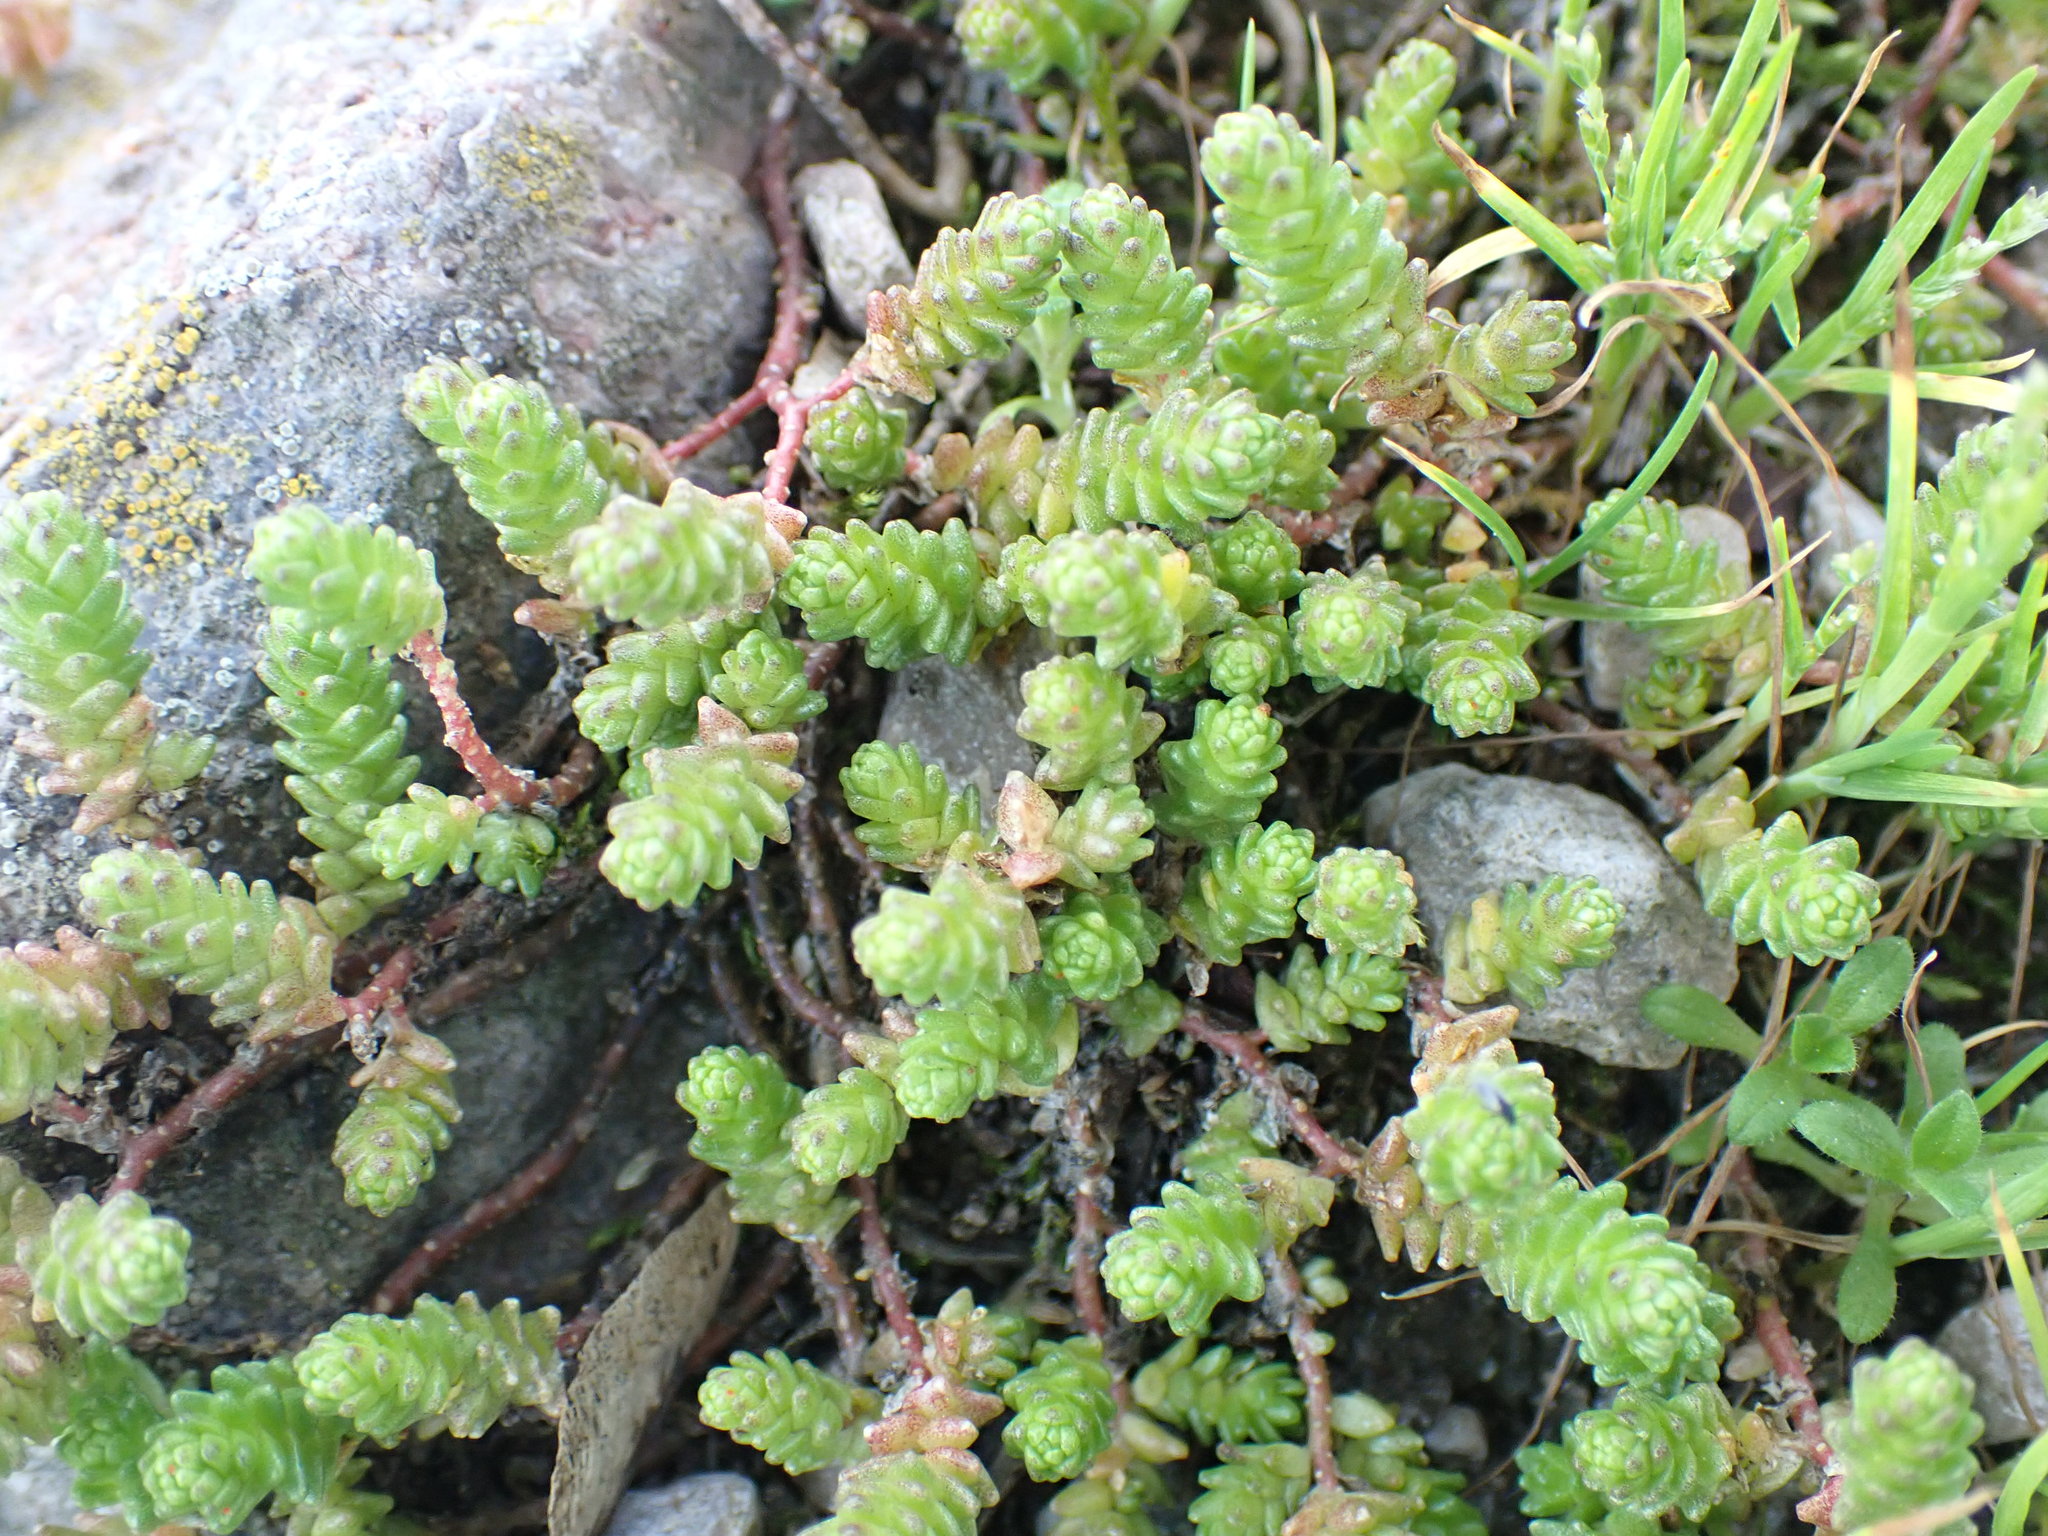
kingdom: Plantae
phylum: Tracheophyta
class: Magnoliopsida
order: Saxifragales
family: Crassulaceae
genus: Sedum
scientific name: Sedum acre
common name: Biting stonecrop
